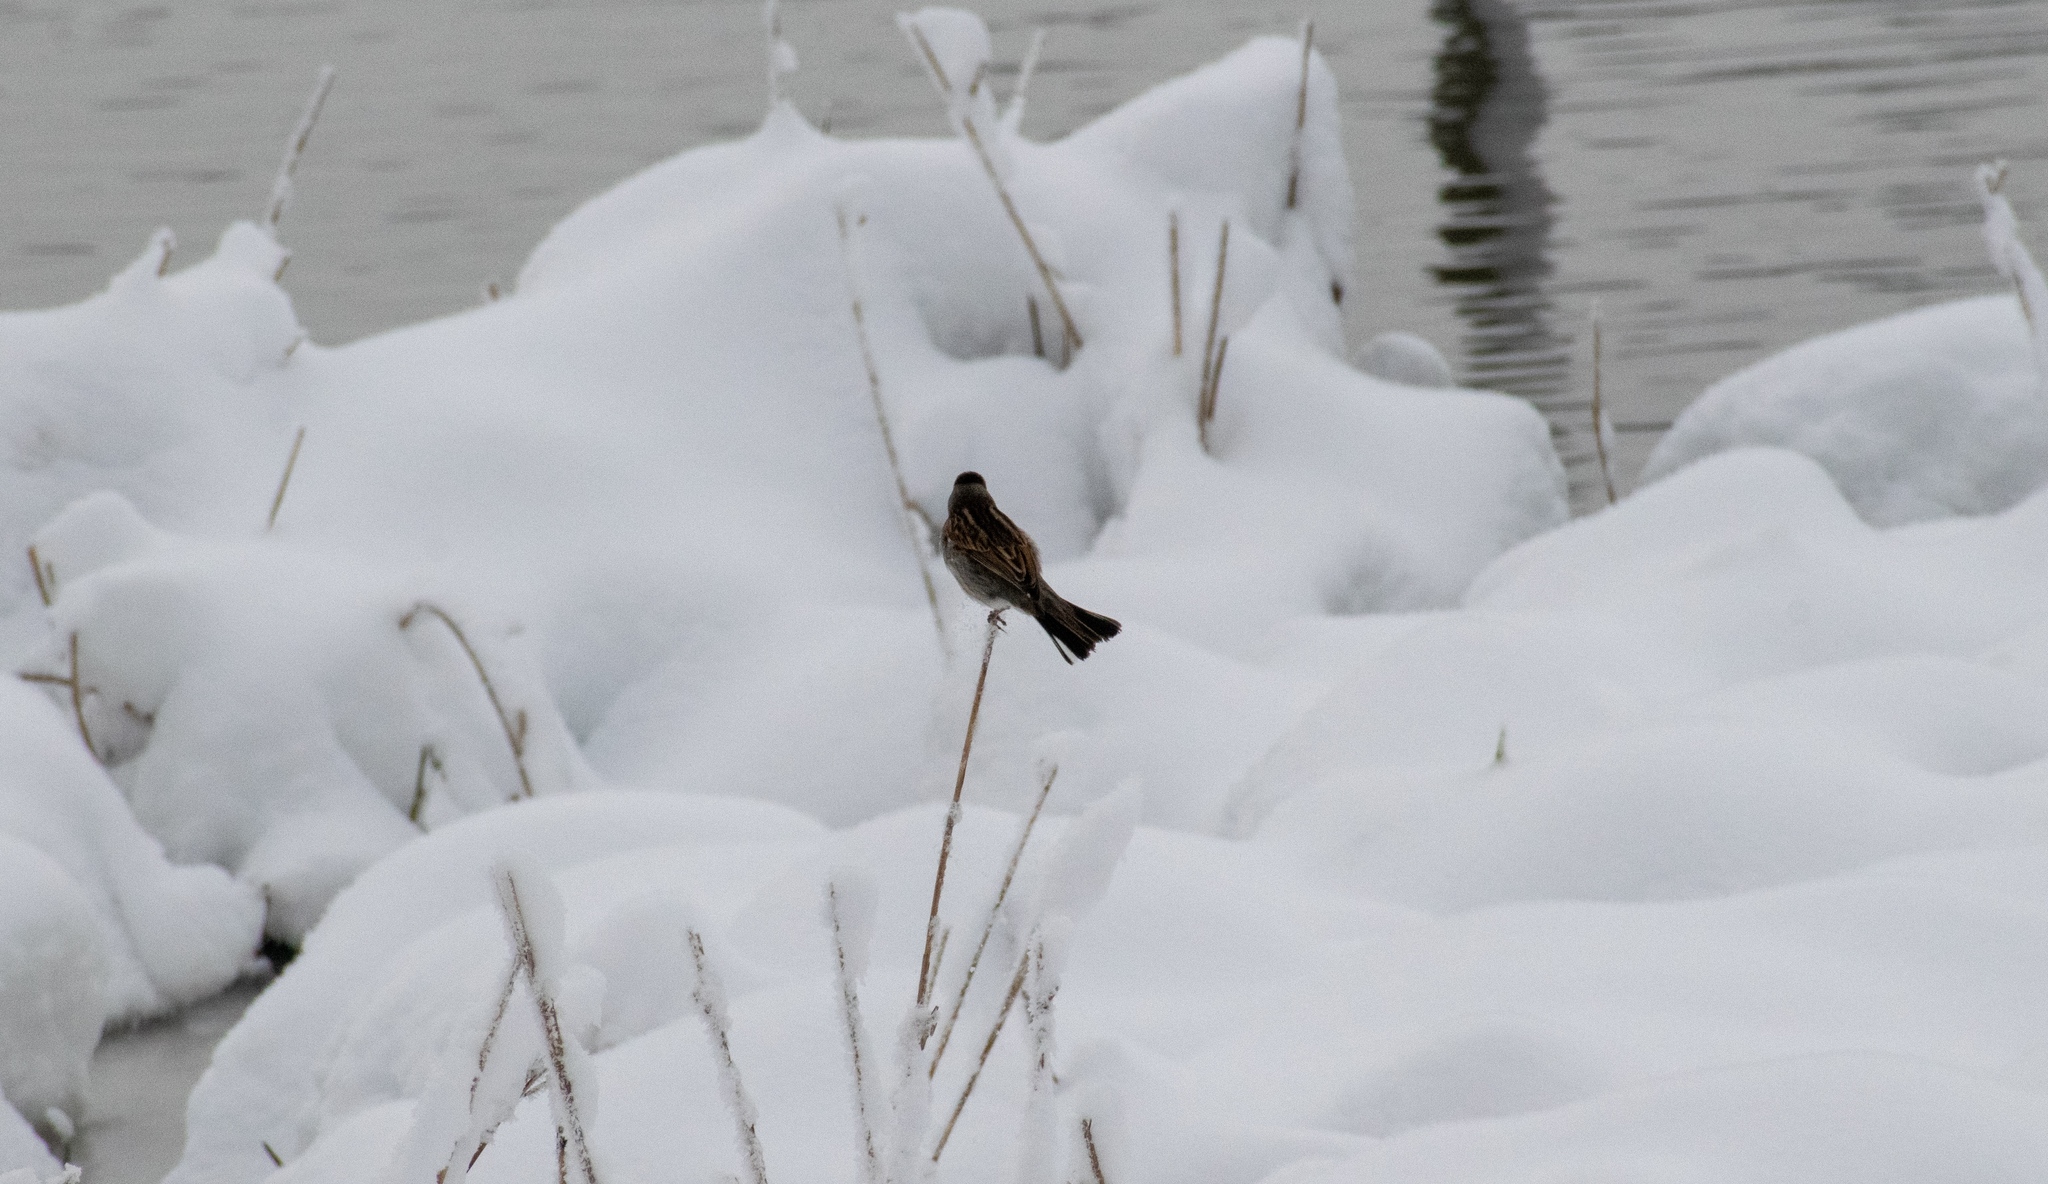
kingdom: Animalia
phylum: Chordata
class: Aves
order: Passeriformes
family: Emberizidae
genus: Emberiza
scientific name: Emberiza schoeniclus
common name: Reed bunting
